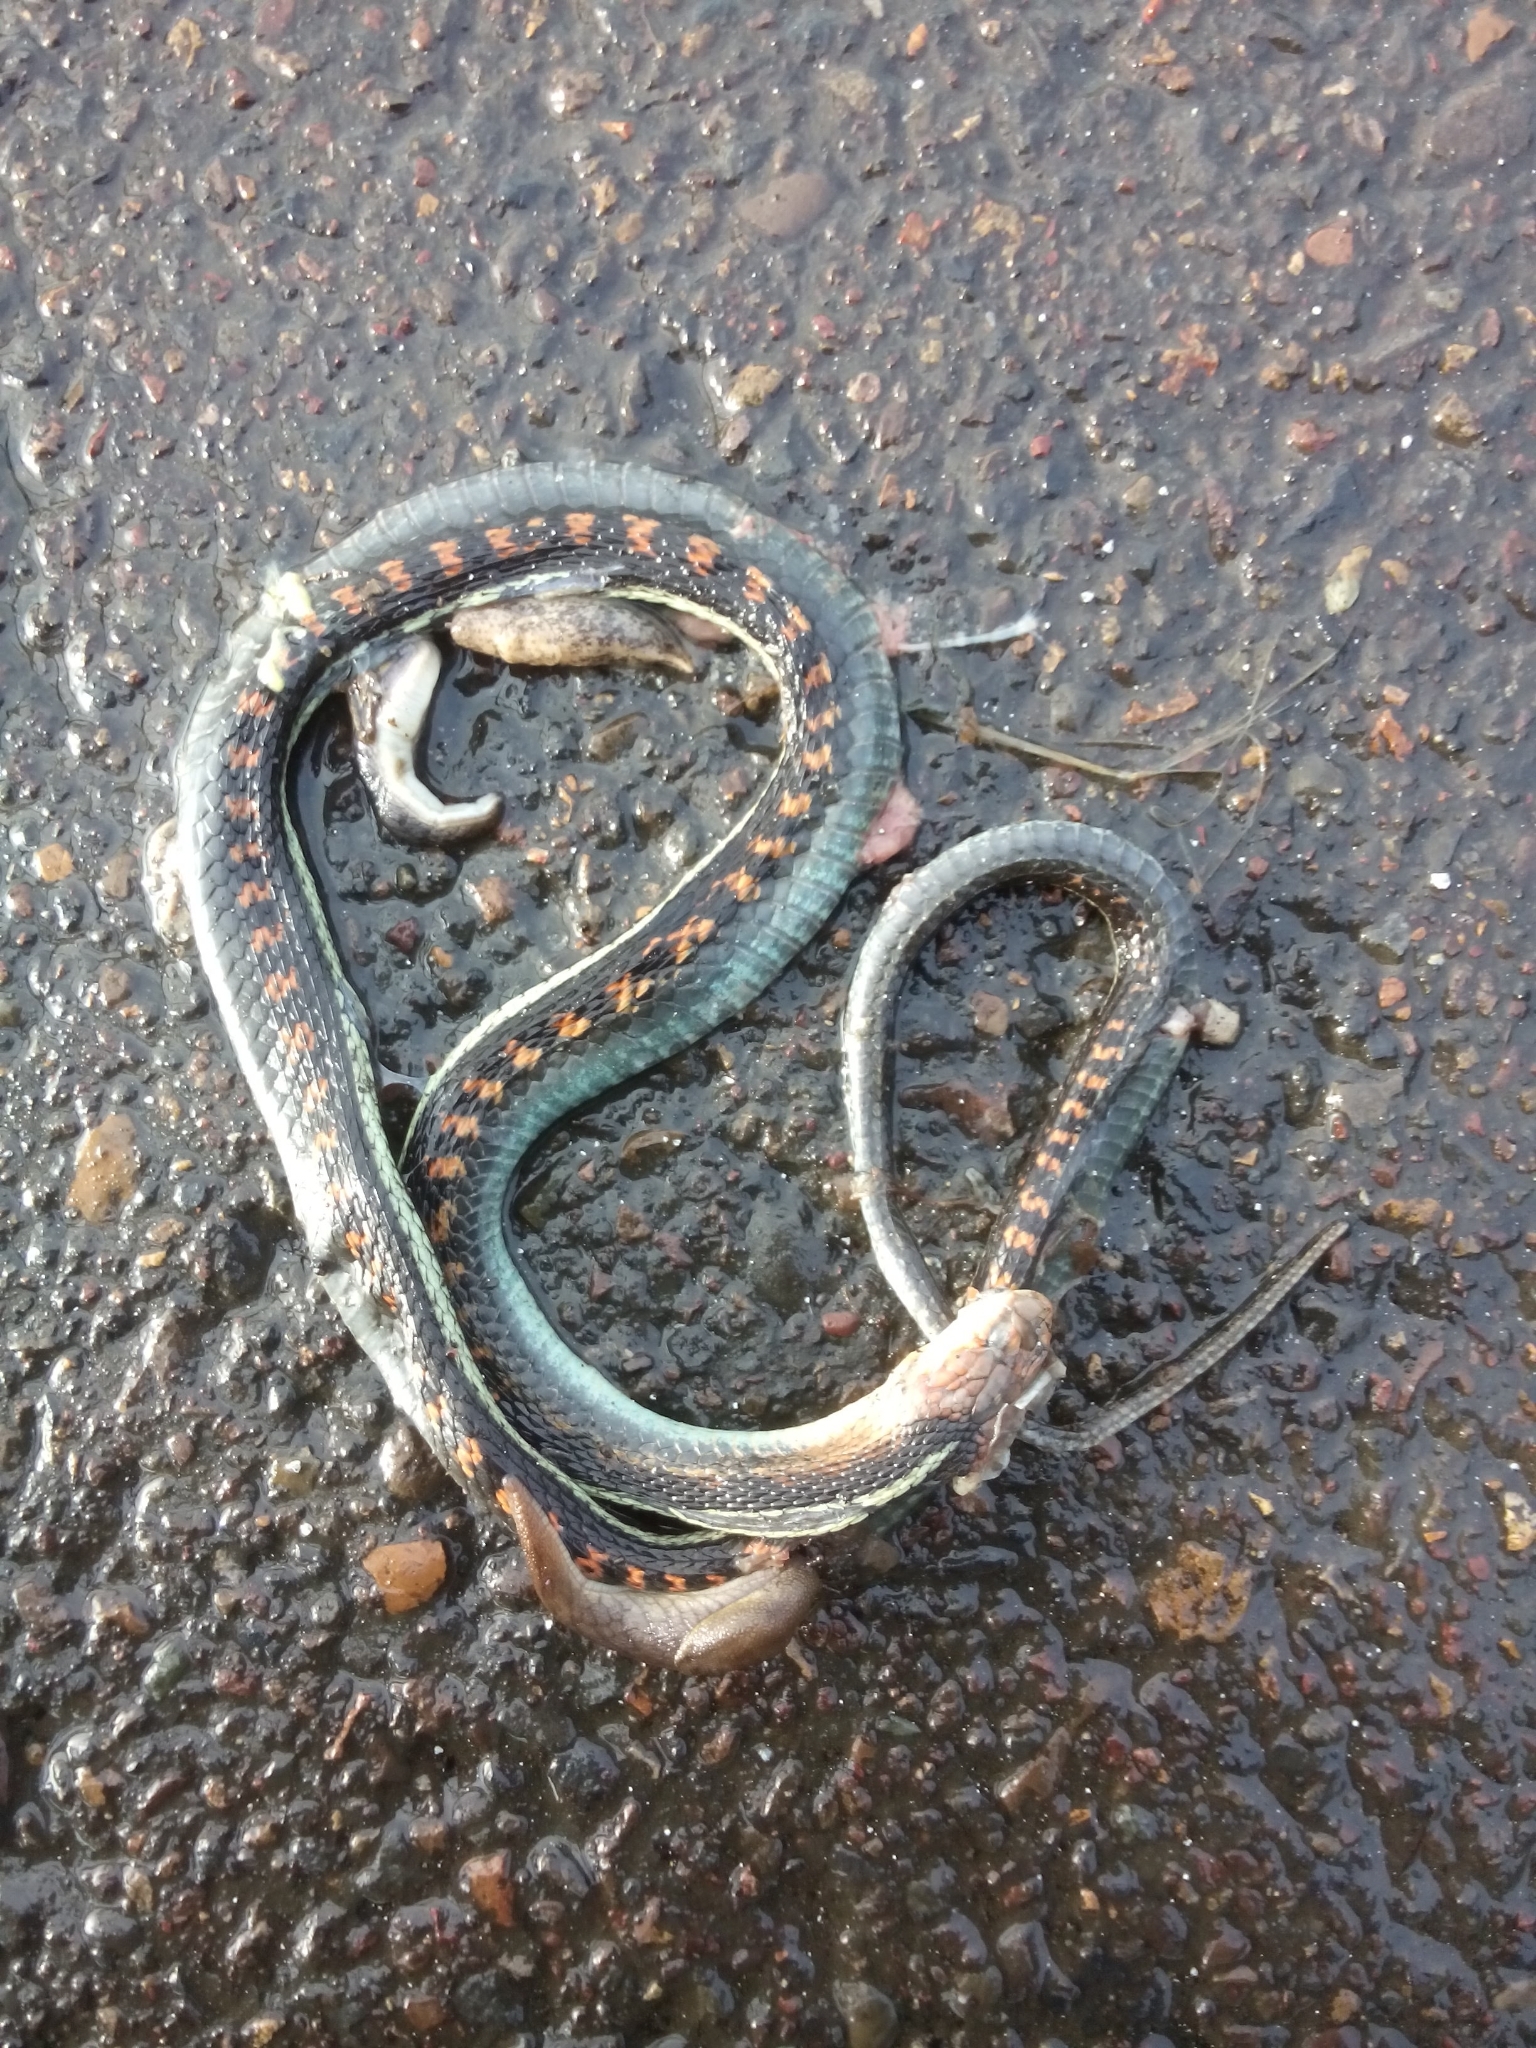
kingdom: Animalia
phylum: Chordata
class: Squamata
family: Colubridae
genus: Thamnophis
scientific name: Thamnophis sirtalis
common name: Common garter snake
